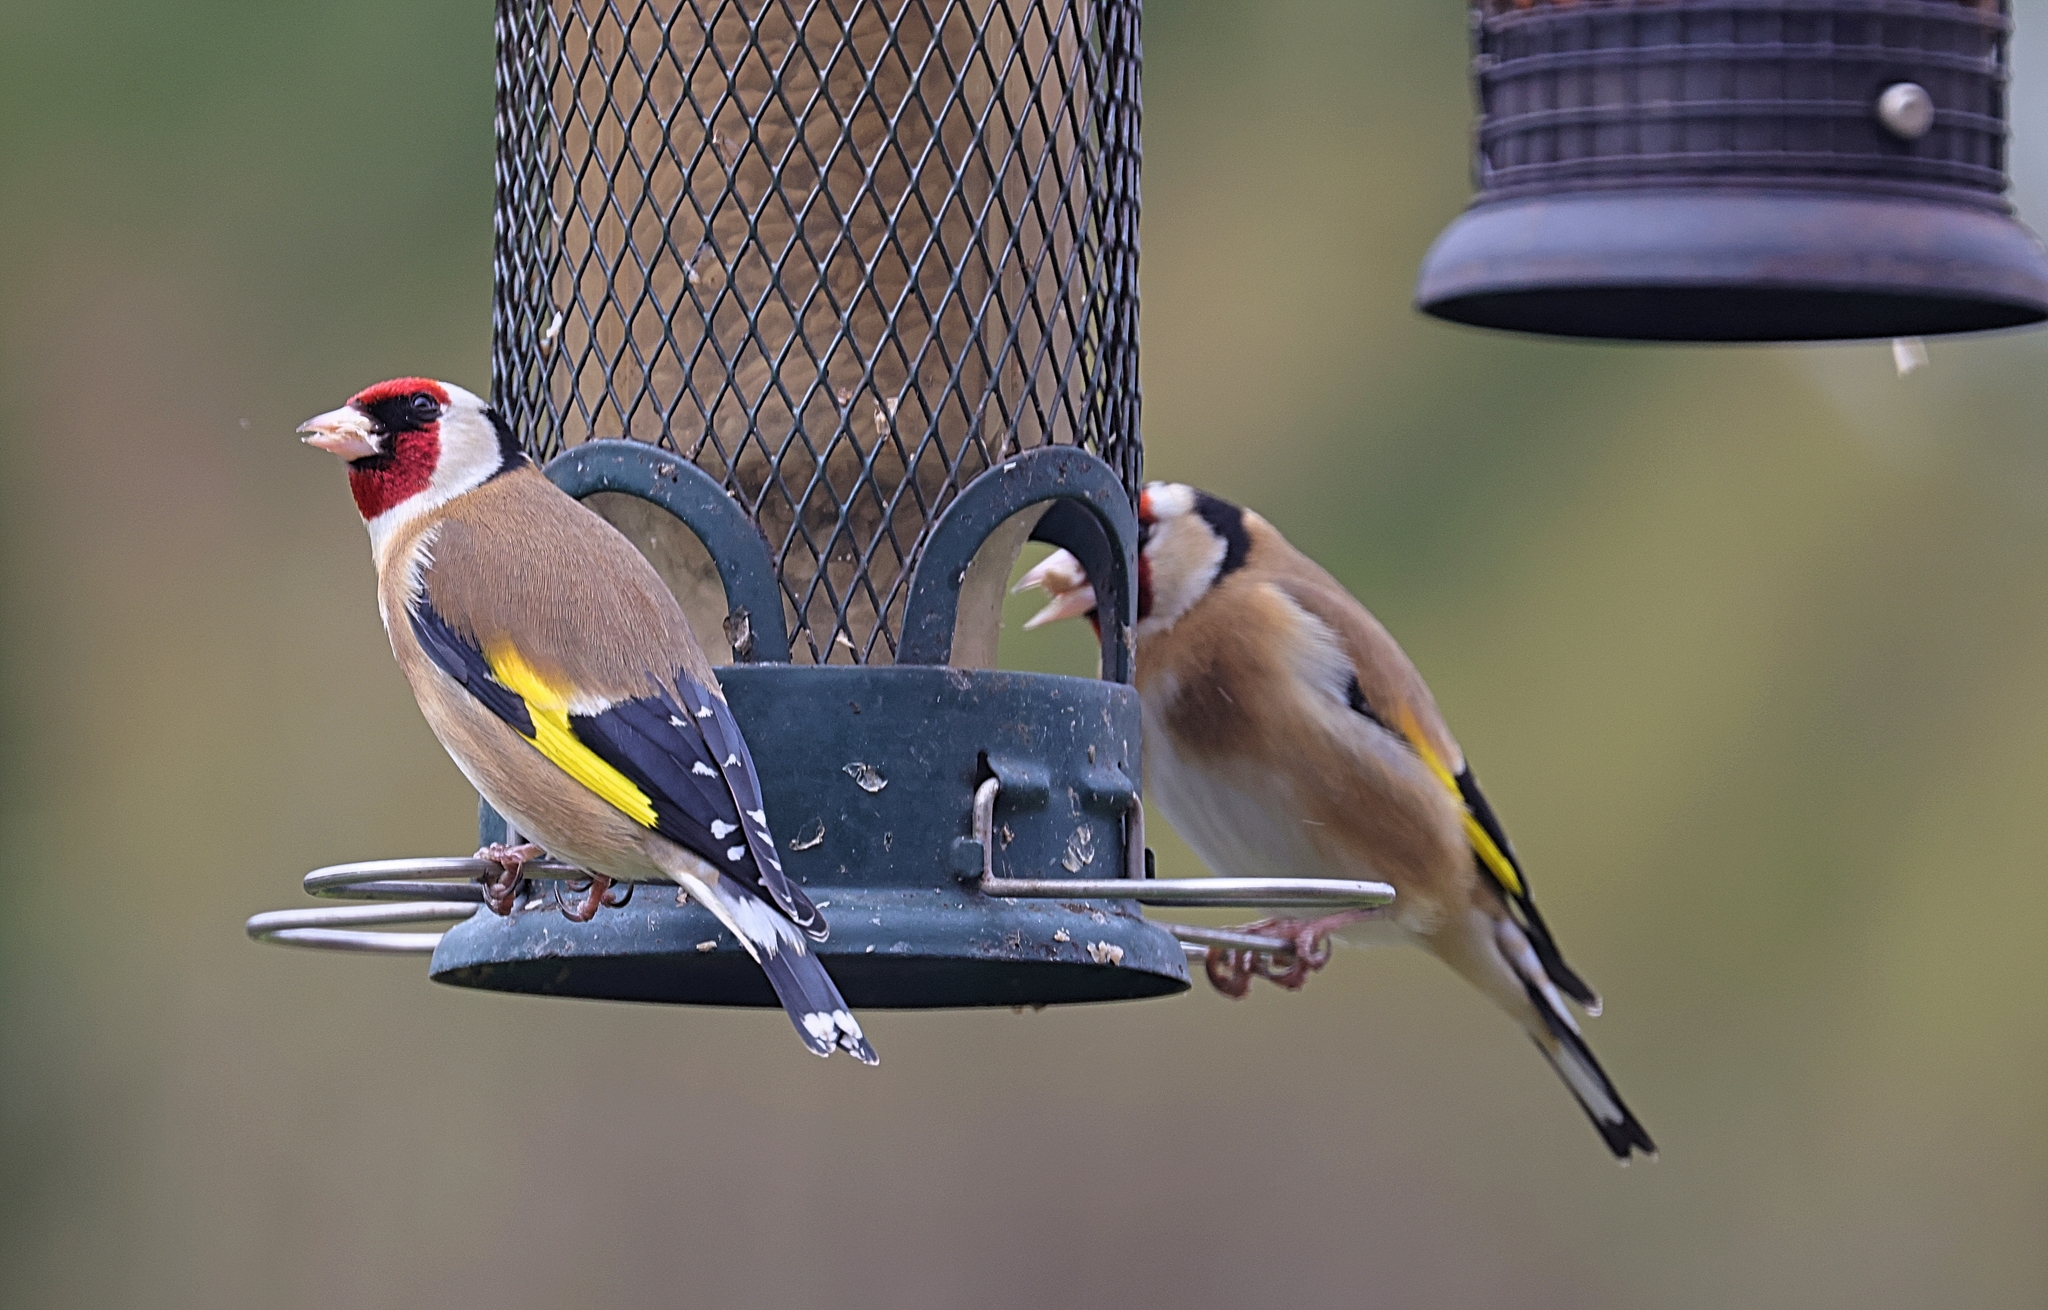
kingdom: Animalia
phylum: Chordata
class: Aves
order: Passeriformes
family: Fringillidae
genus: Carduelis
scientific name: Carduelis carduelis
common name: European goldfinch
